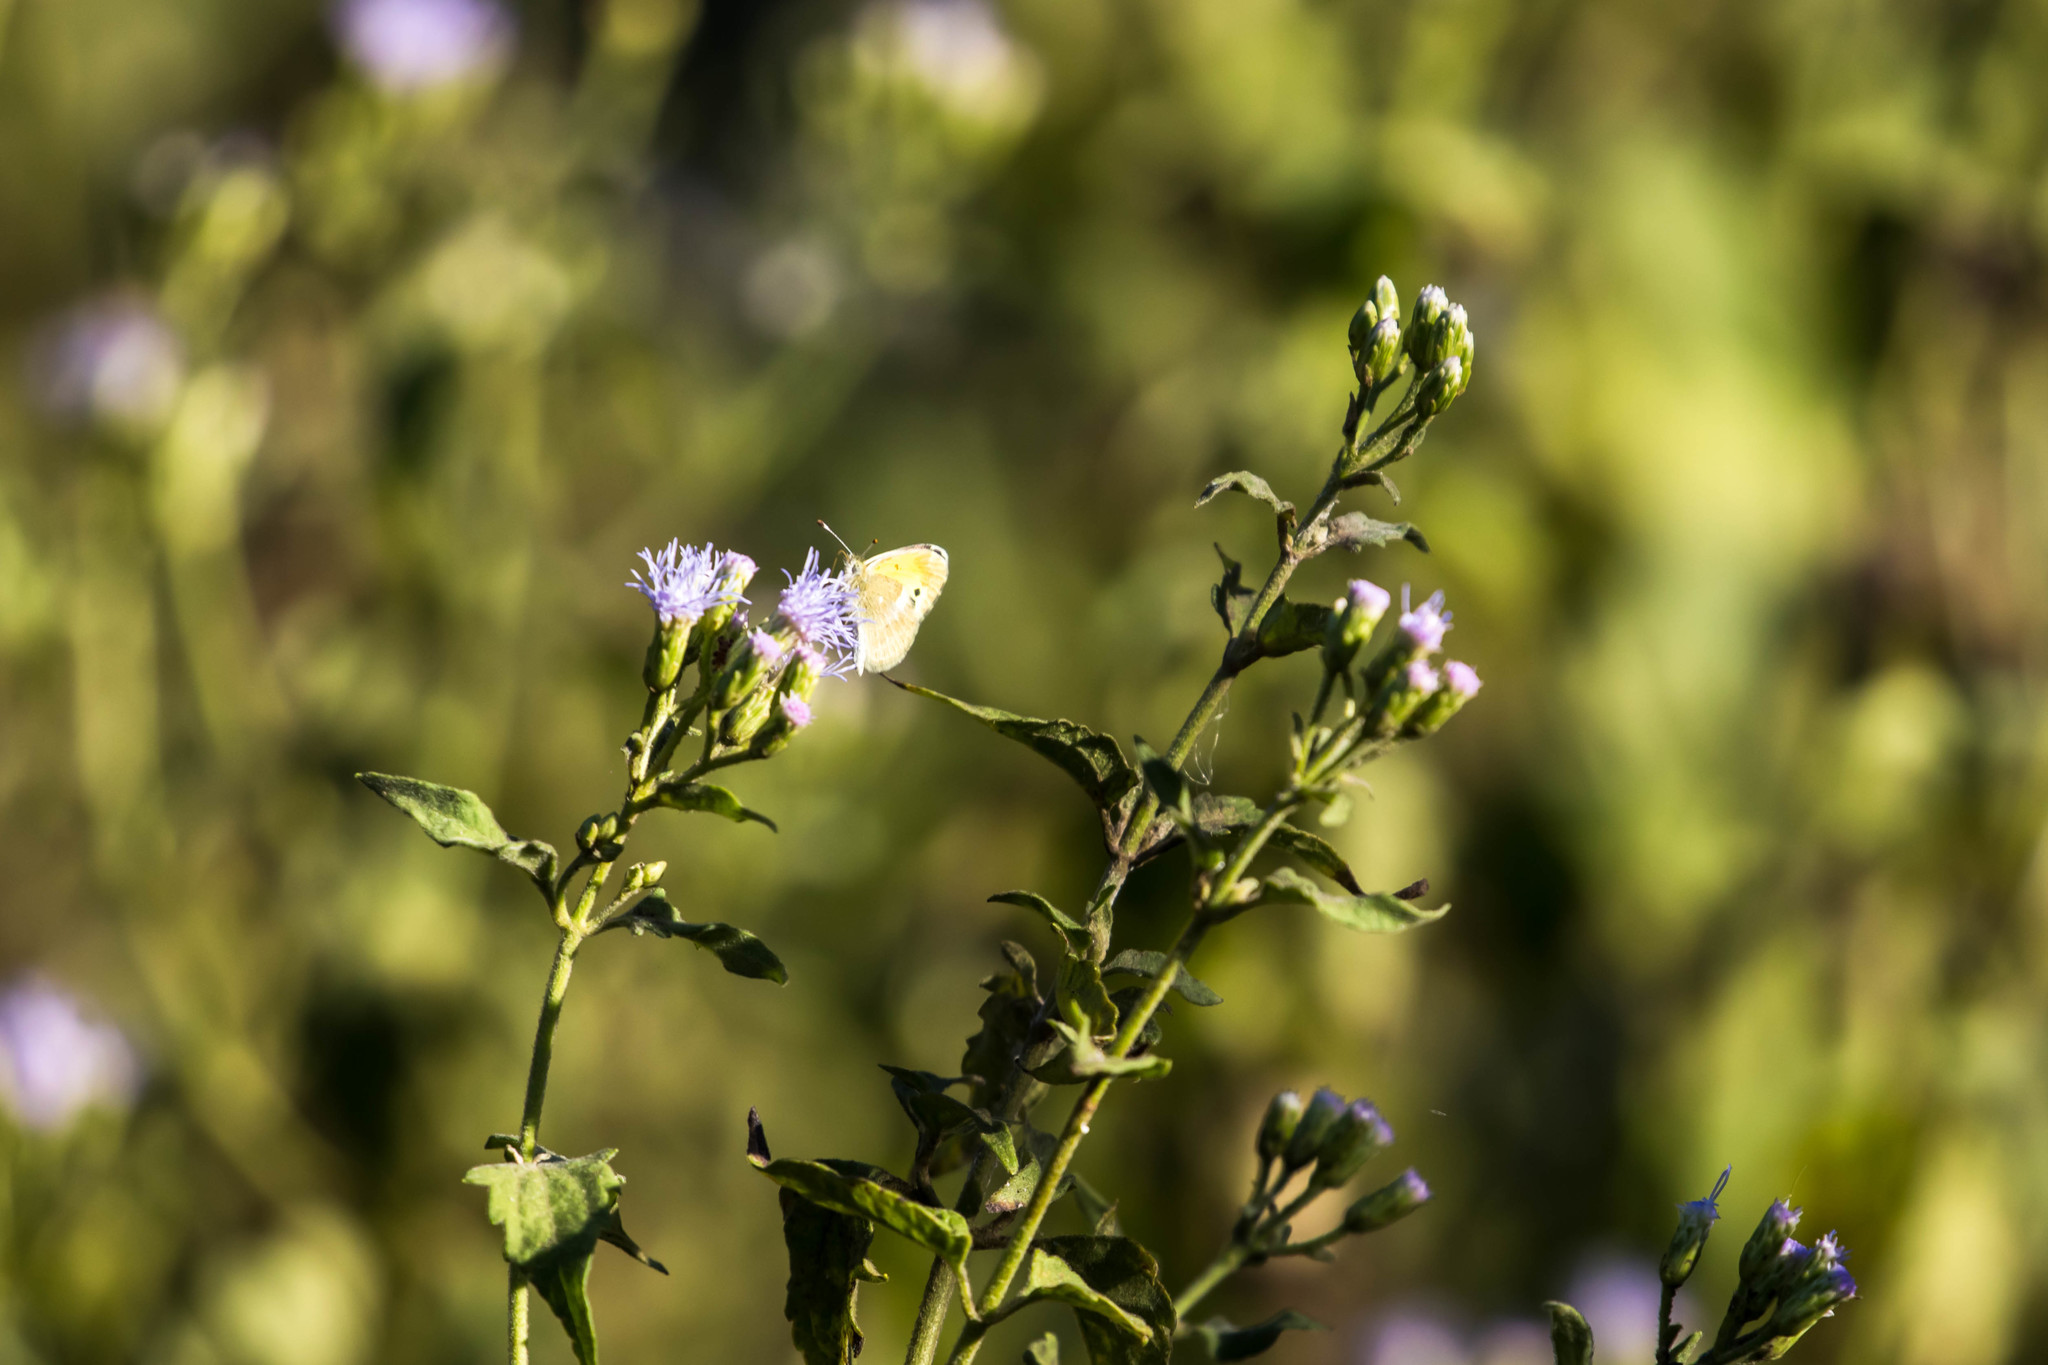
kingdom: Animalia
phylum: Arthropoda
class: Insecta
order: Lepidoptera
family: Pieridae
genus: Nathalis
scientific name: Nathalis iole
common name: Dainty sulphur
